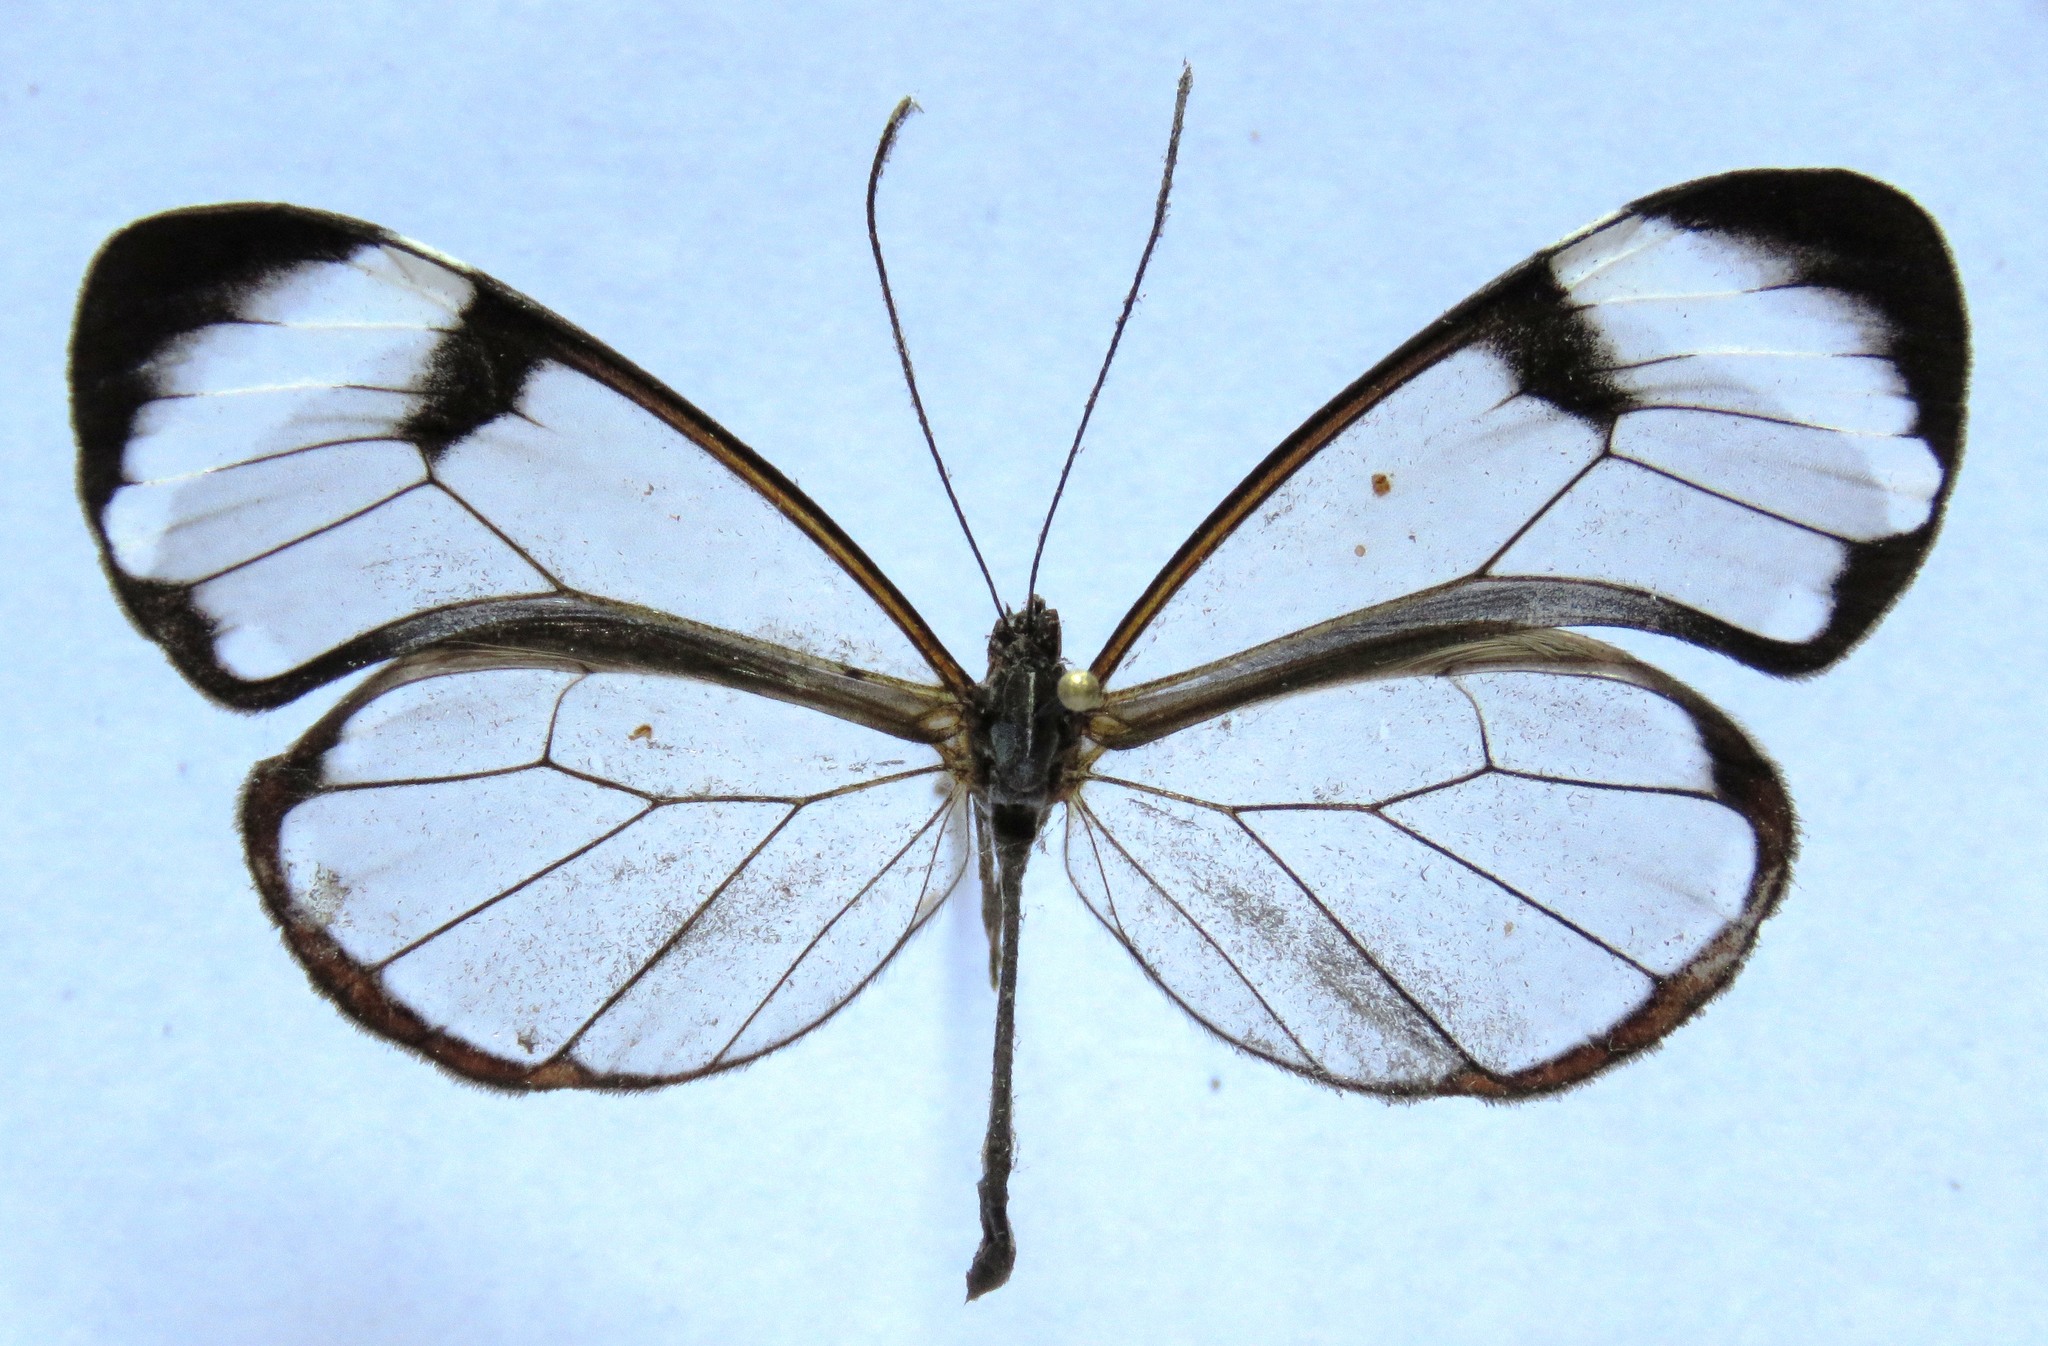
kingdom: Animalia
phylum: Arthropoda
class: Insecta
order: Lepidoptera
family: Nymphalidae
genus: Greta
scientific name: Greta morgane
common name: Thick-tipped greta
